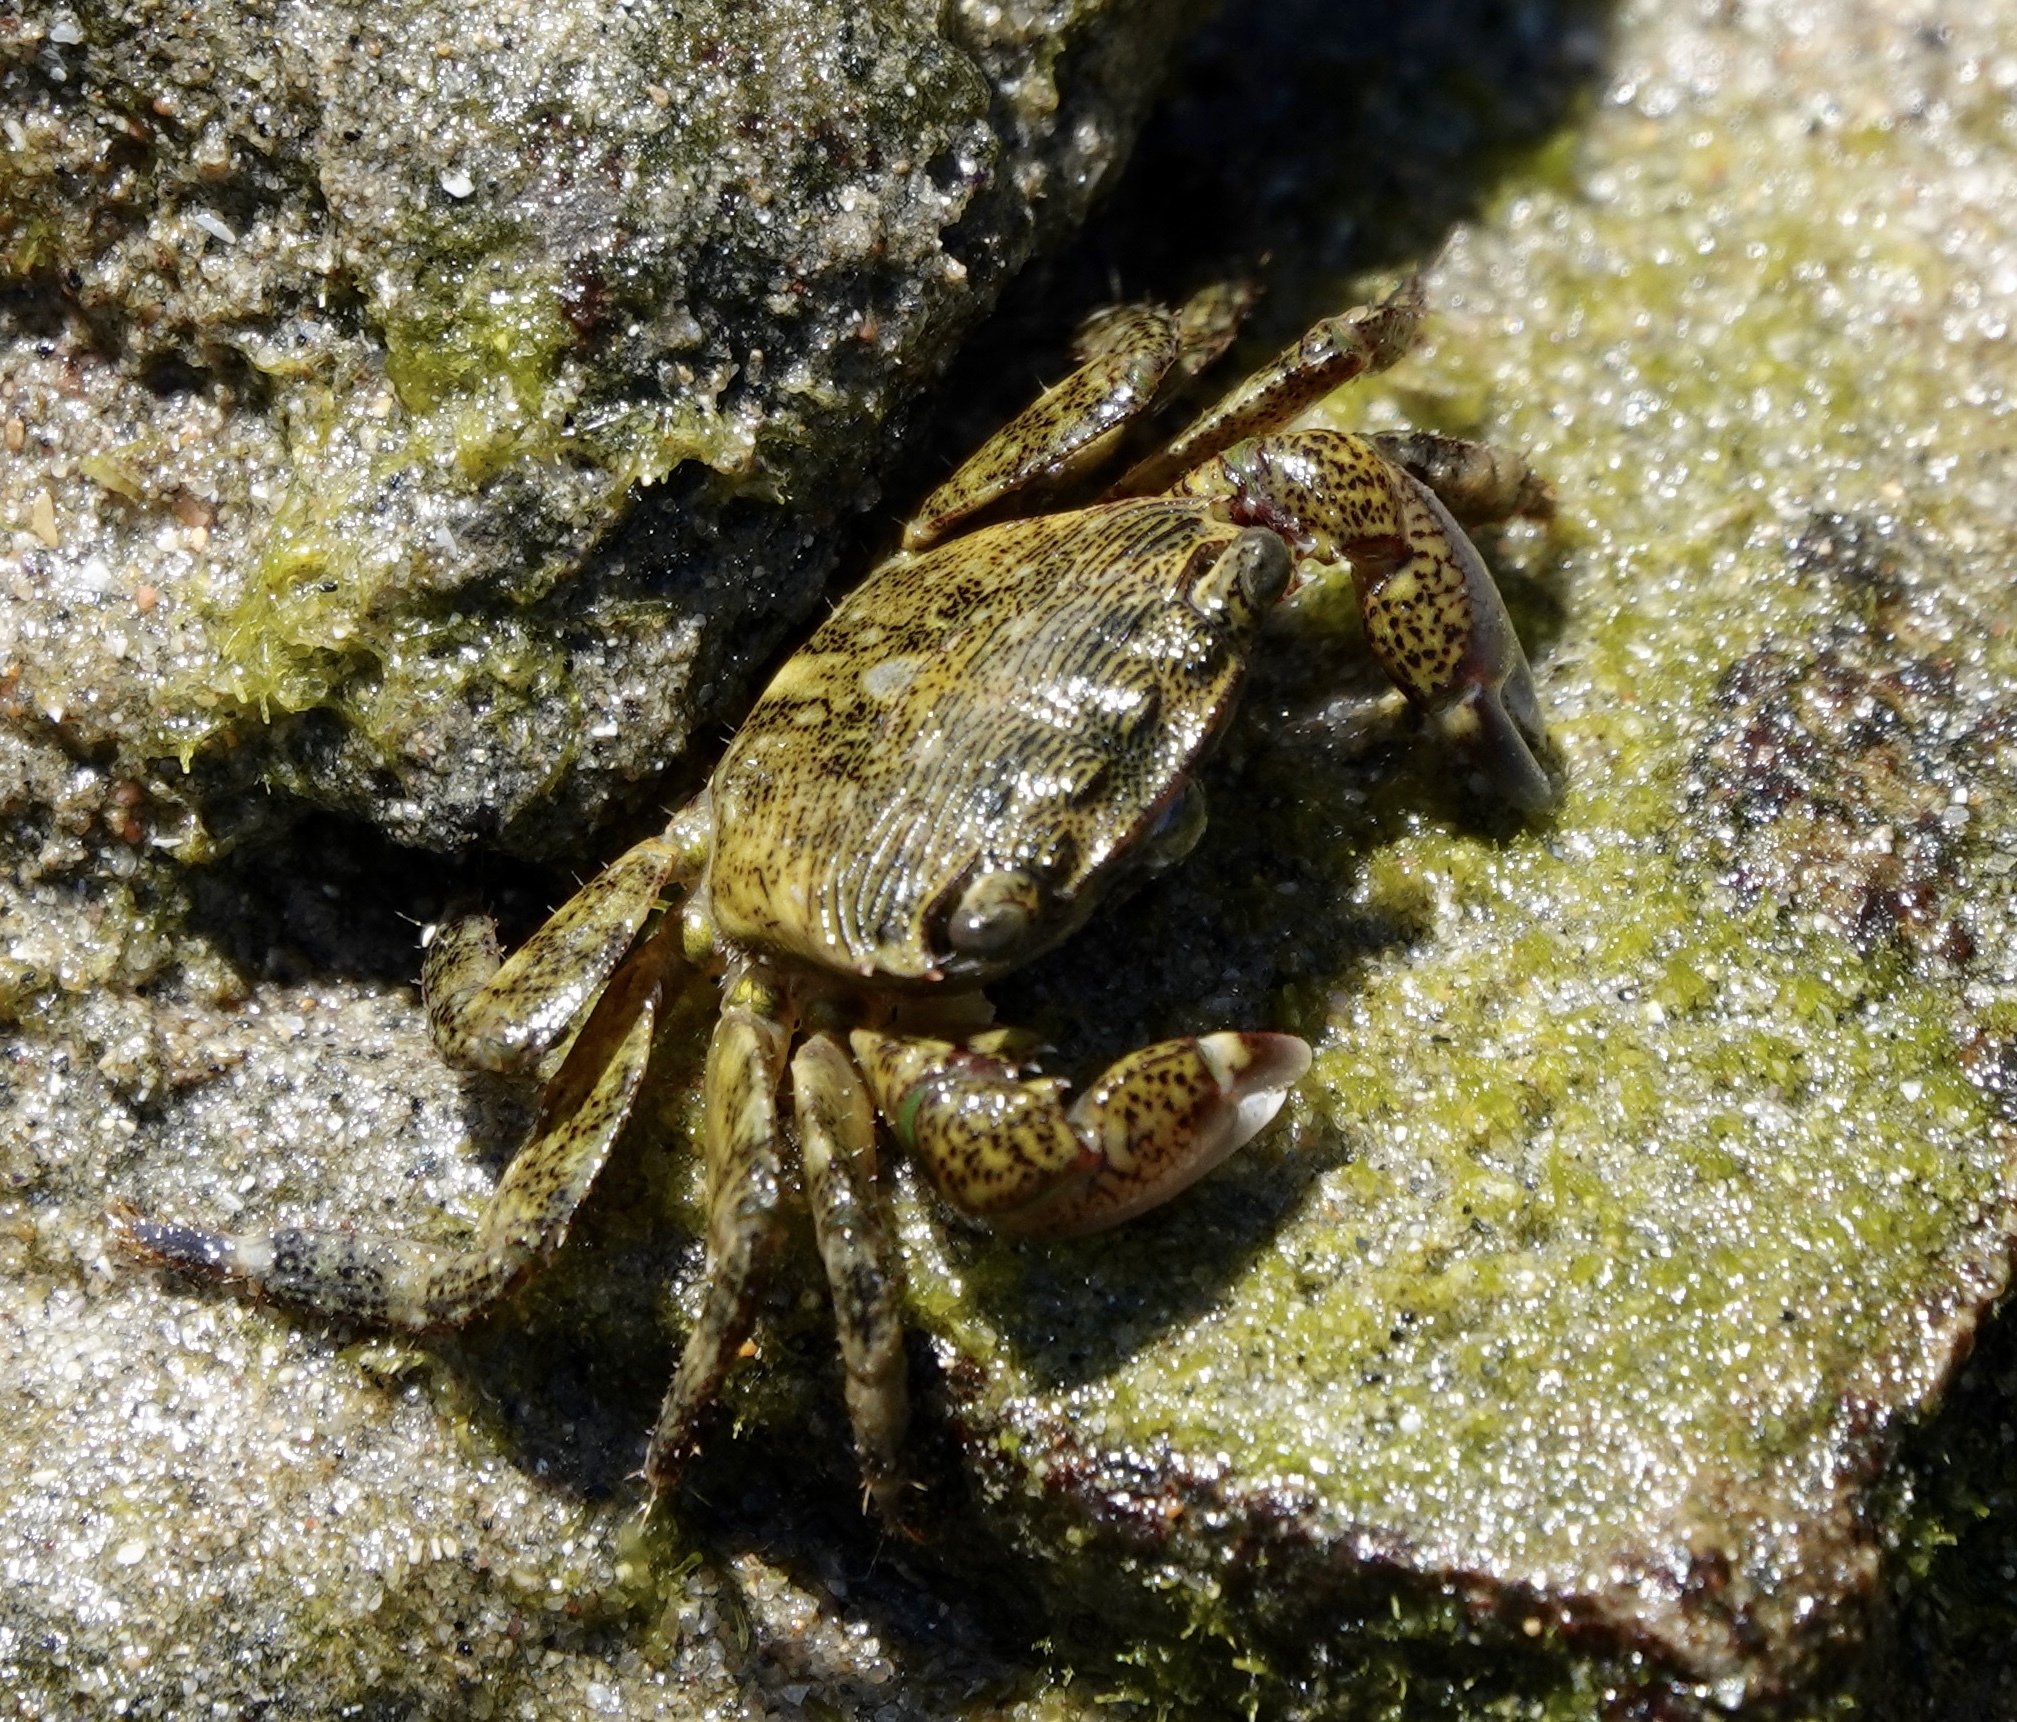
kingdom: Animalia
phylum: Arthropoda
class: Malacostraca
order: Decapoda
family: Grapsidae
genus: Pachygrapsus
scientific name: Pachygrapsus crassipes
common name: Striped shore crab
